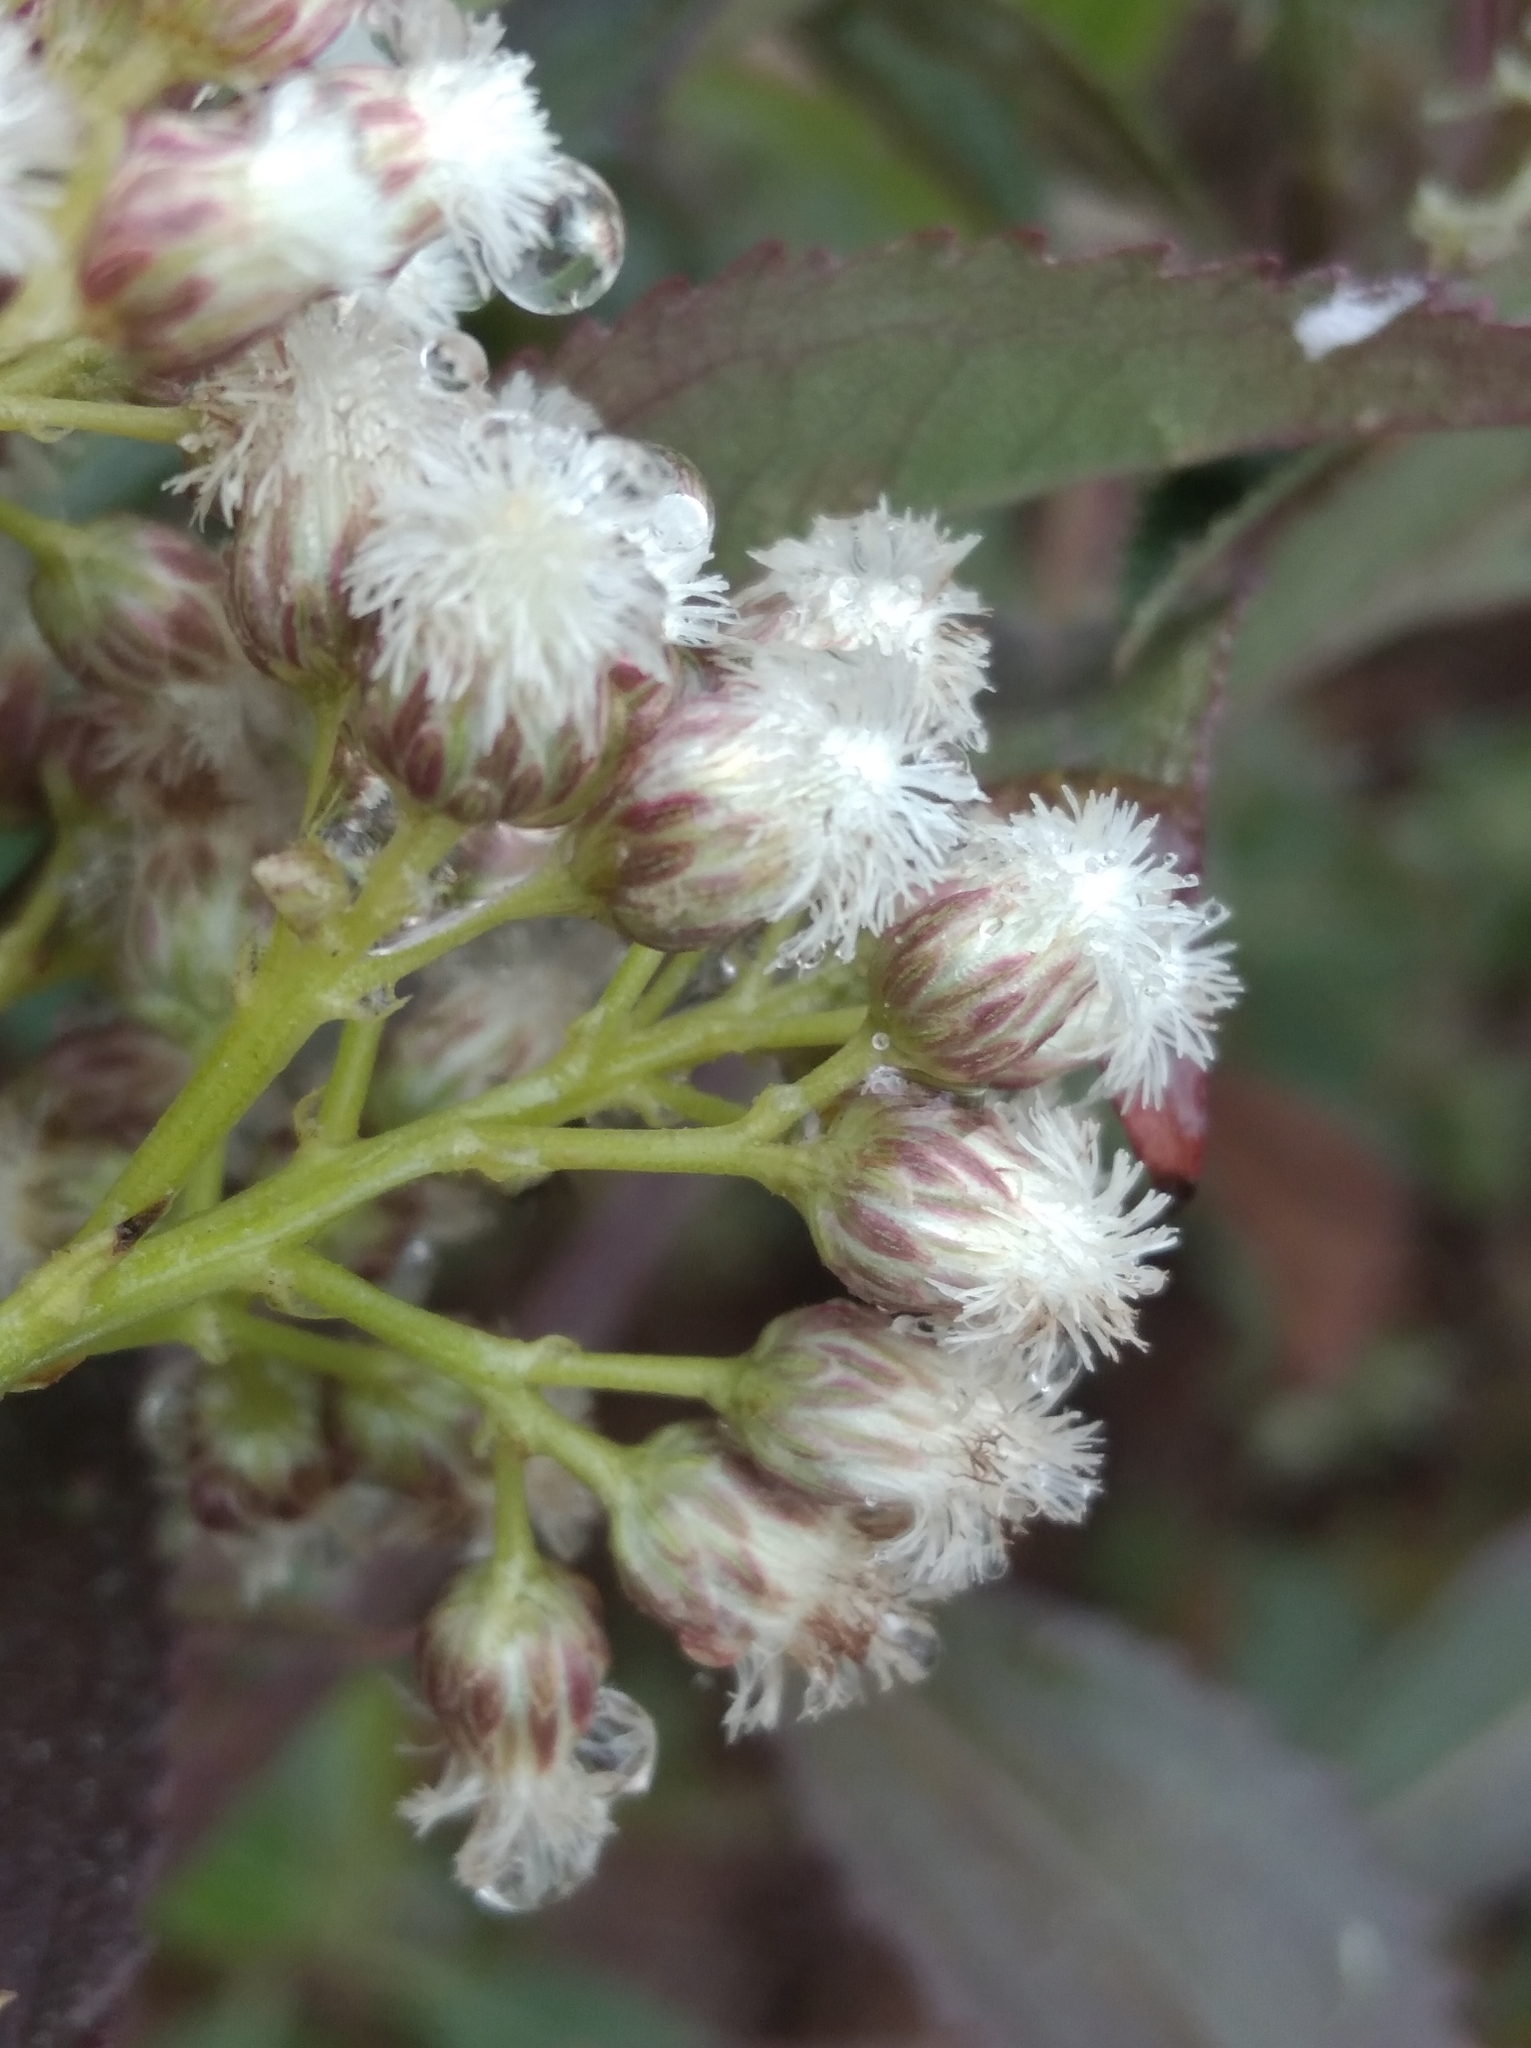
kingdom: Plantae
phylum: Tracheophyta
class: Magnoliopsida
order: Asterales
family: Asteraceae
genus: Baccharis
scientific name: Baccharis latifolia
